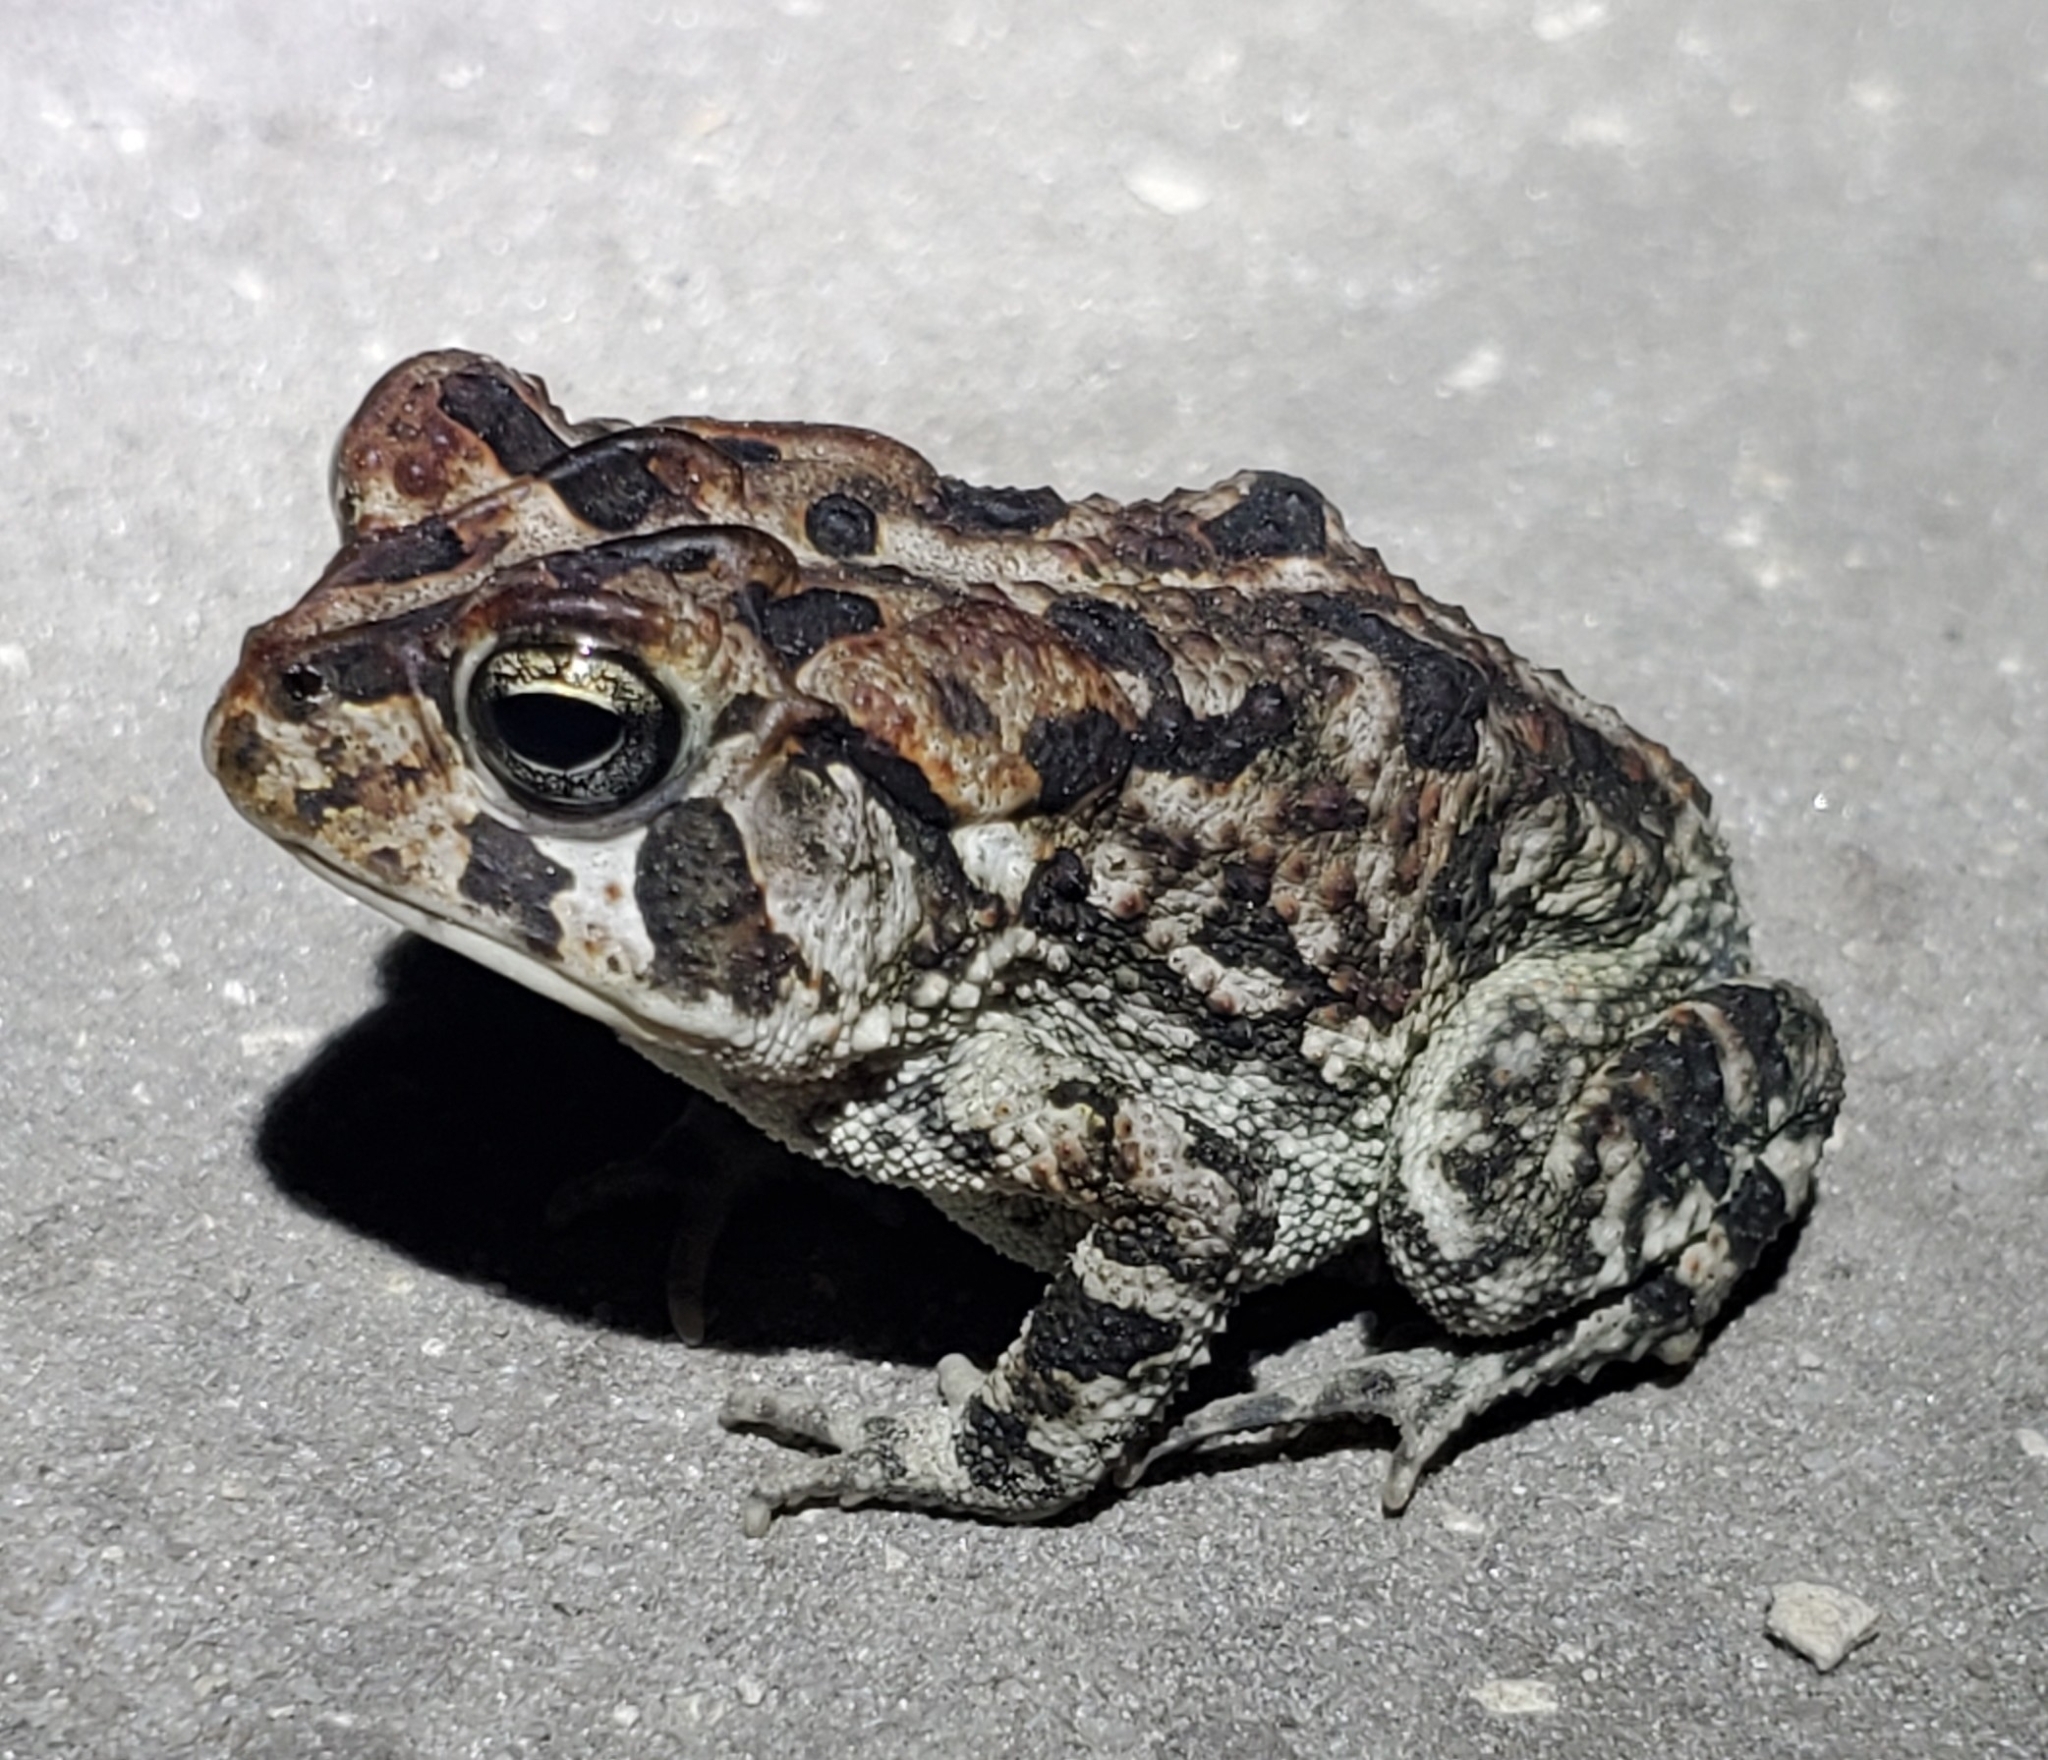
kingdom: Animalia
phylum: Chordata
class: Amphibia
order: Anura
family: Bufonidae
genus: Anaxyrus
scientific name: Anaxyrus terrestris
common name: Southern toad
